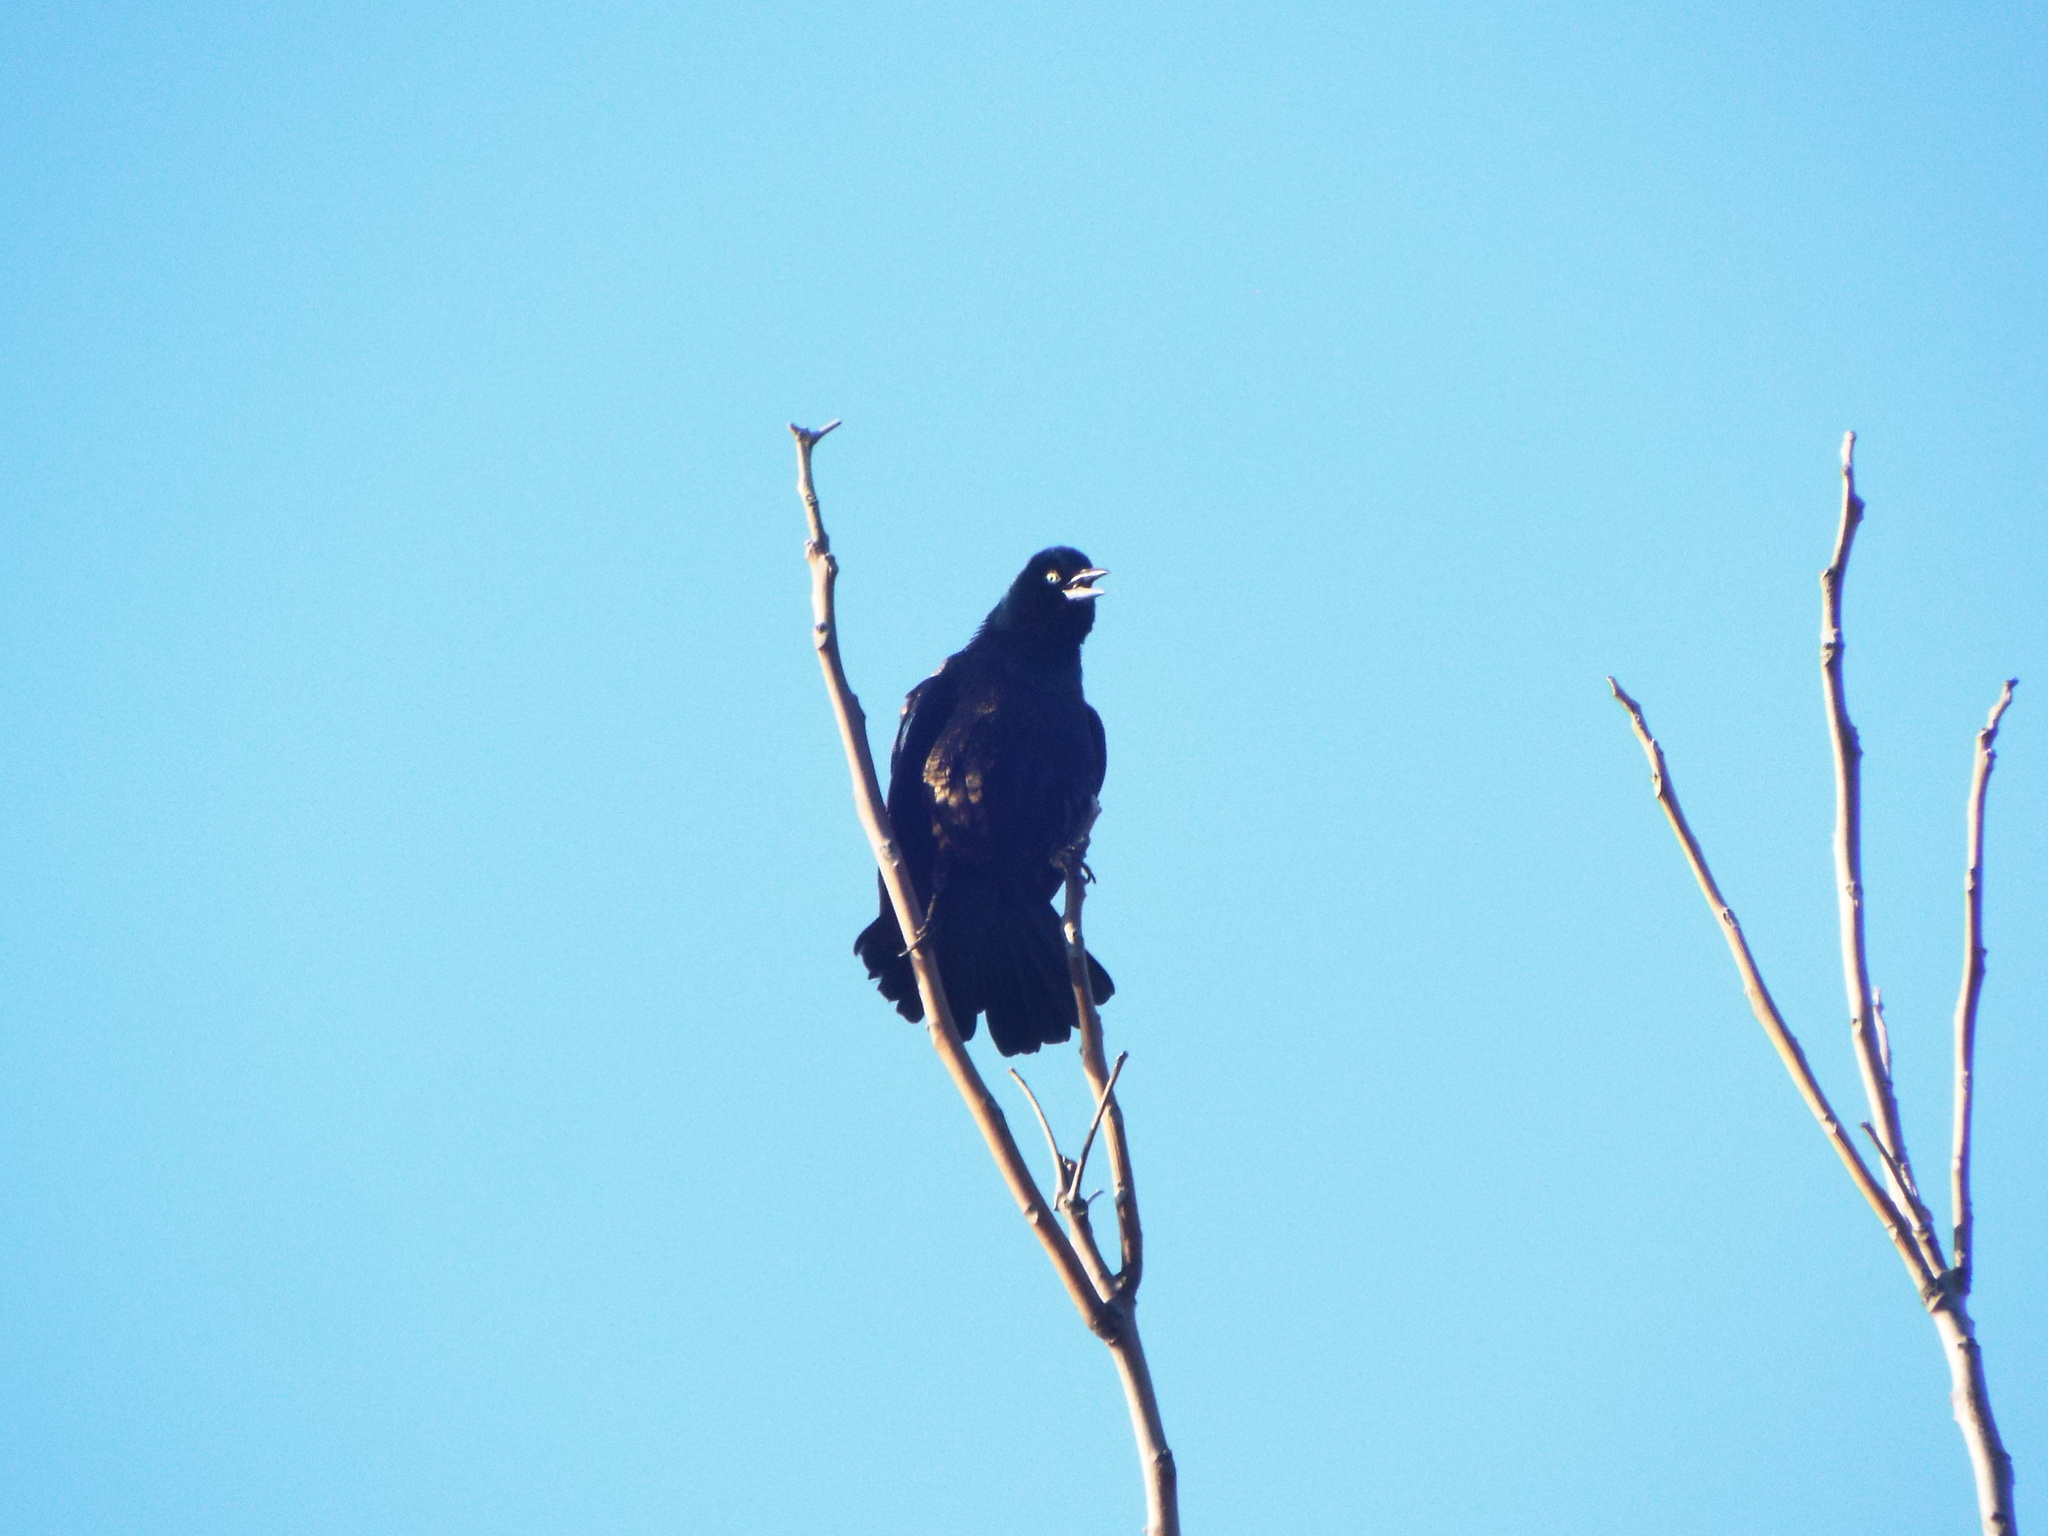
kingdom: Animalia
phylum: Chordata
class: Aves
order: Passeriformes
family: Icteridae
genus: Quiscalus
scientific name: Quiscalus quiscula
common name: Common grackle
